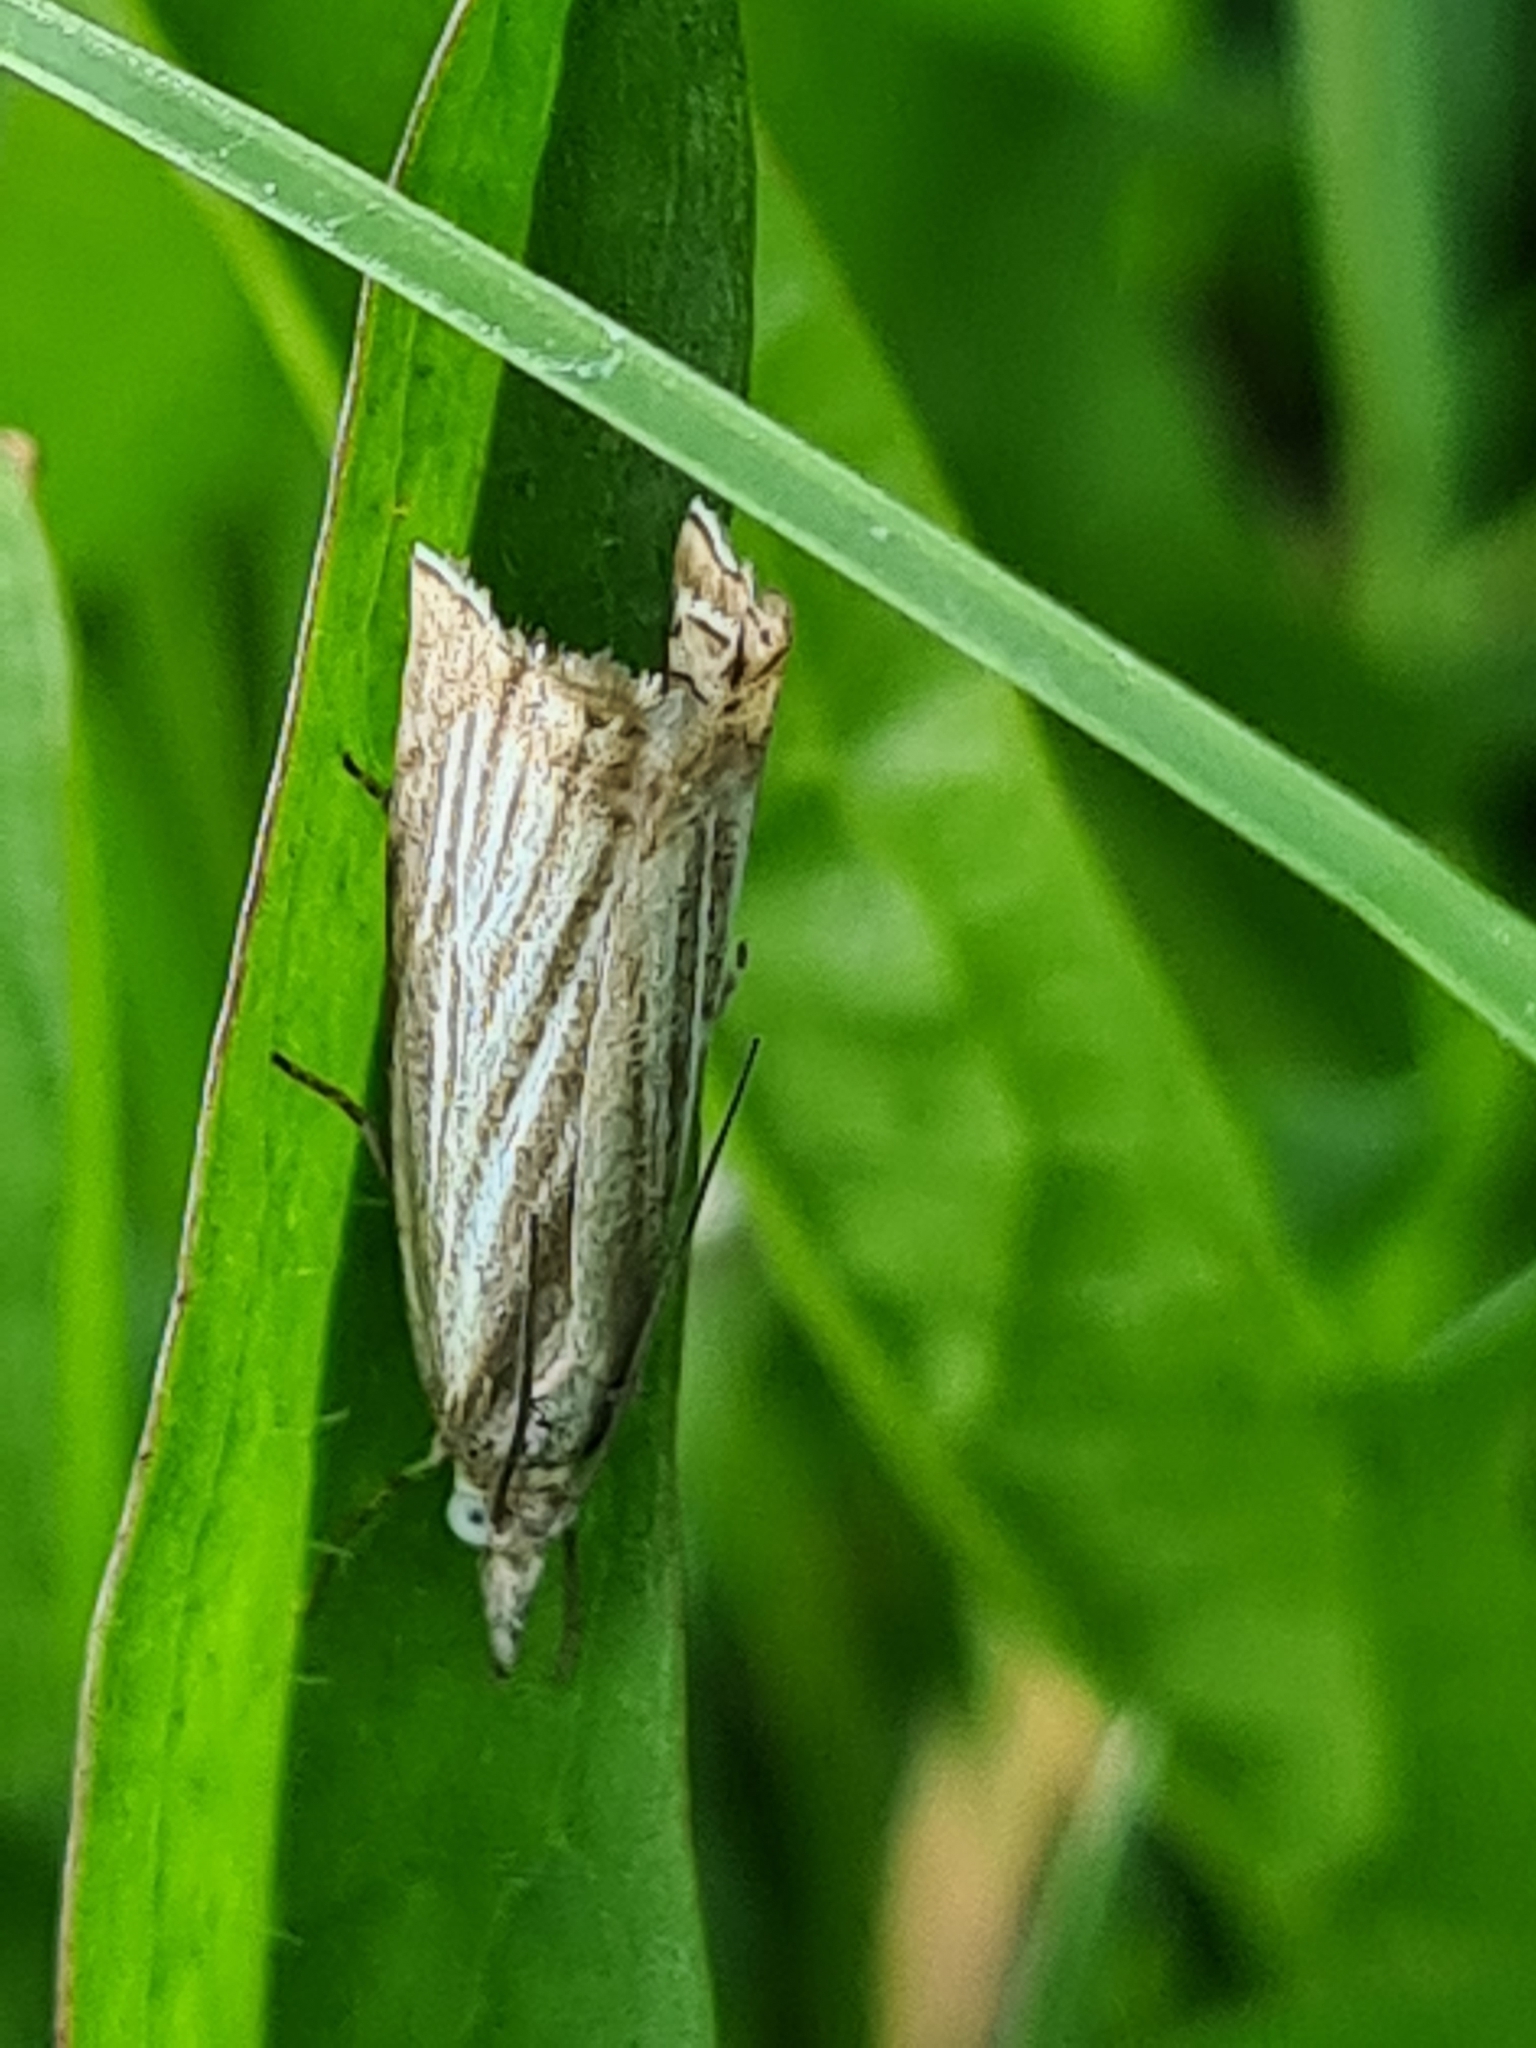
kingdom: Animalia
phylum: Arthropoda
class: Insecta
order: Lepidoptera
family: Crambidae
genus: Chrysoteuchia
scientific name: Chrysoteuchia culmella
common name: Garden grass-veneer
